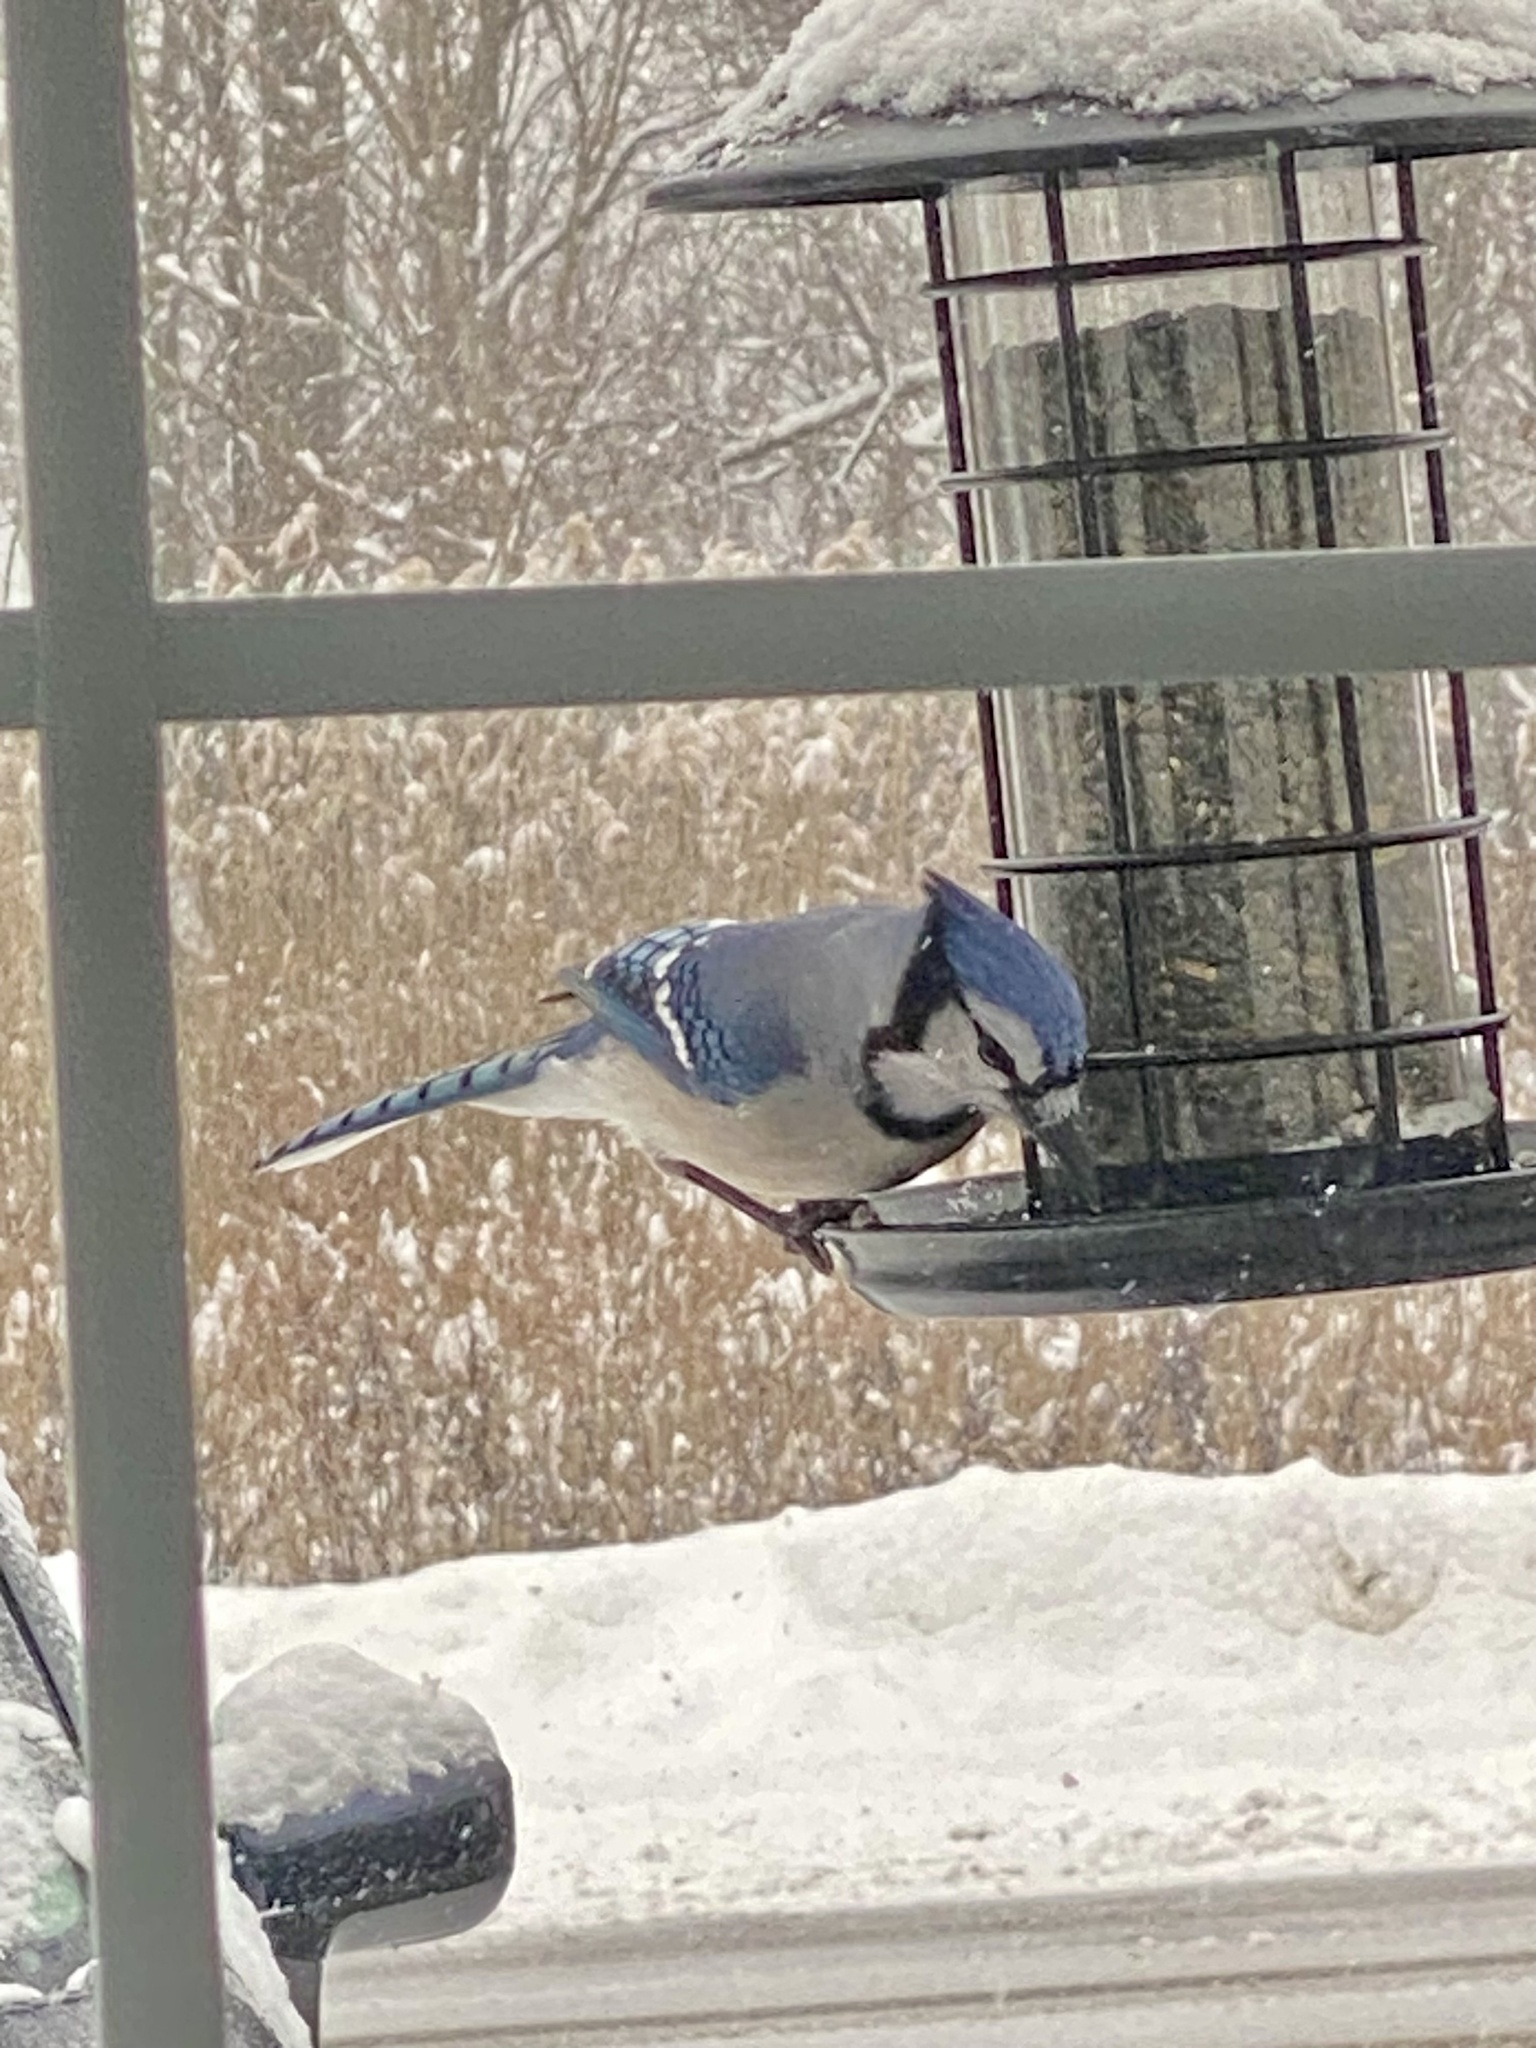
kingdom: Animalia
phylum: Chordata
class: Aves
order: Passeriformes
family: Corvidae
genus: Cyanocitta
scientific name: Cyanocitta cristata
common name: Blue jay
